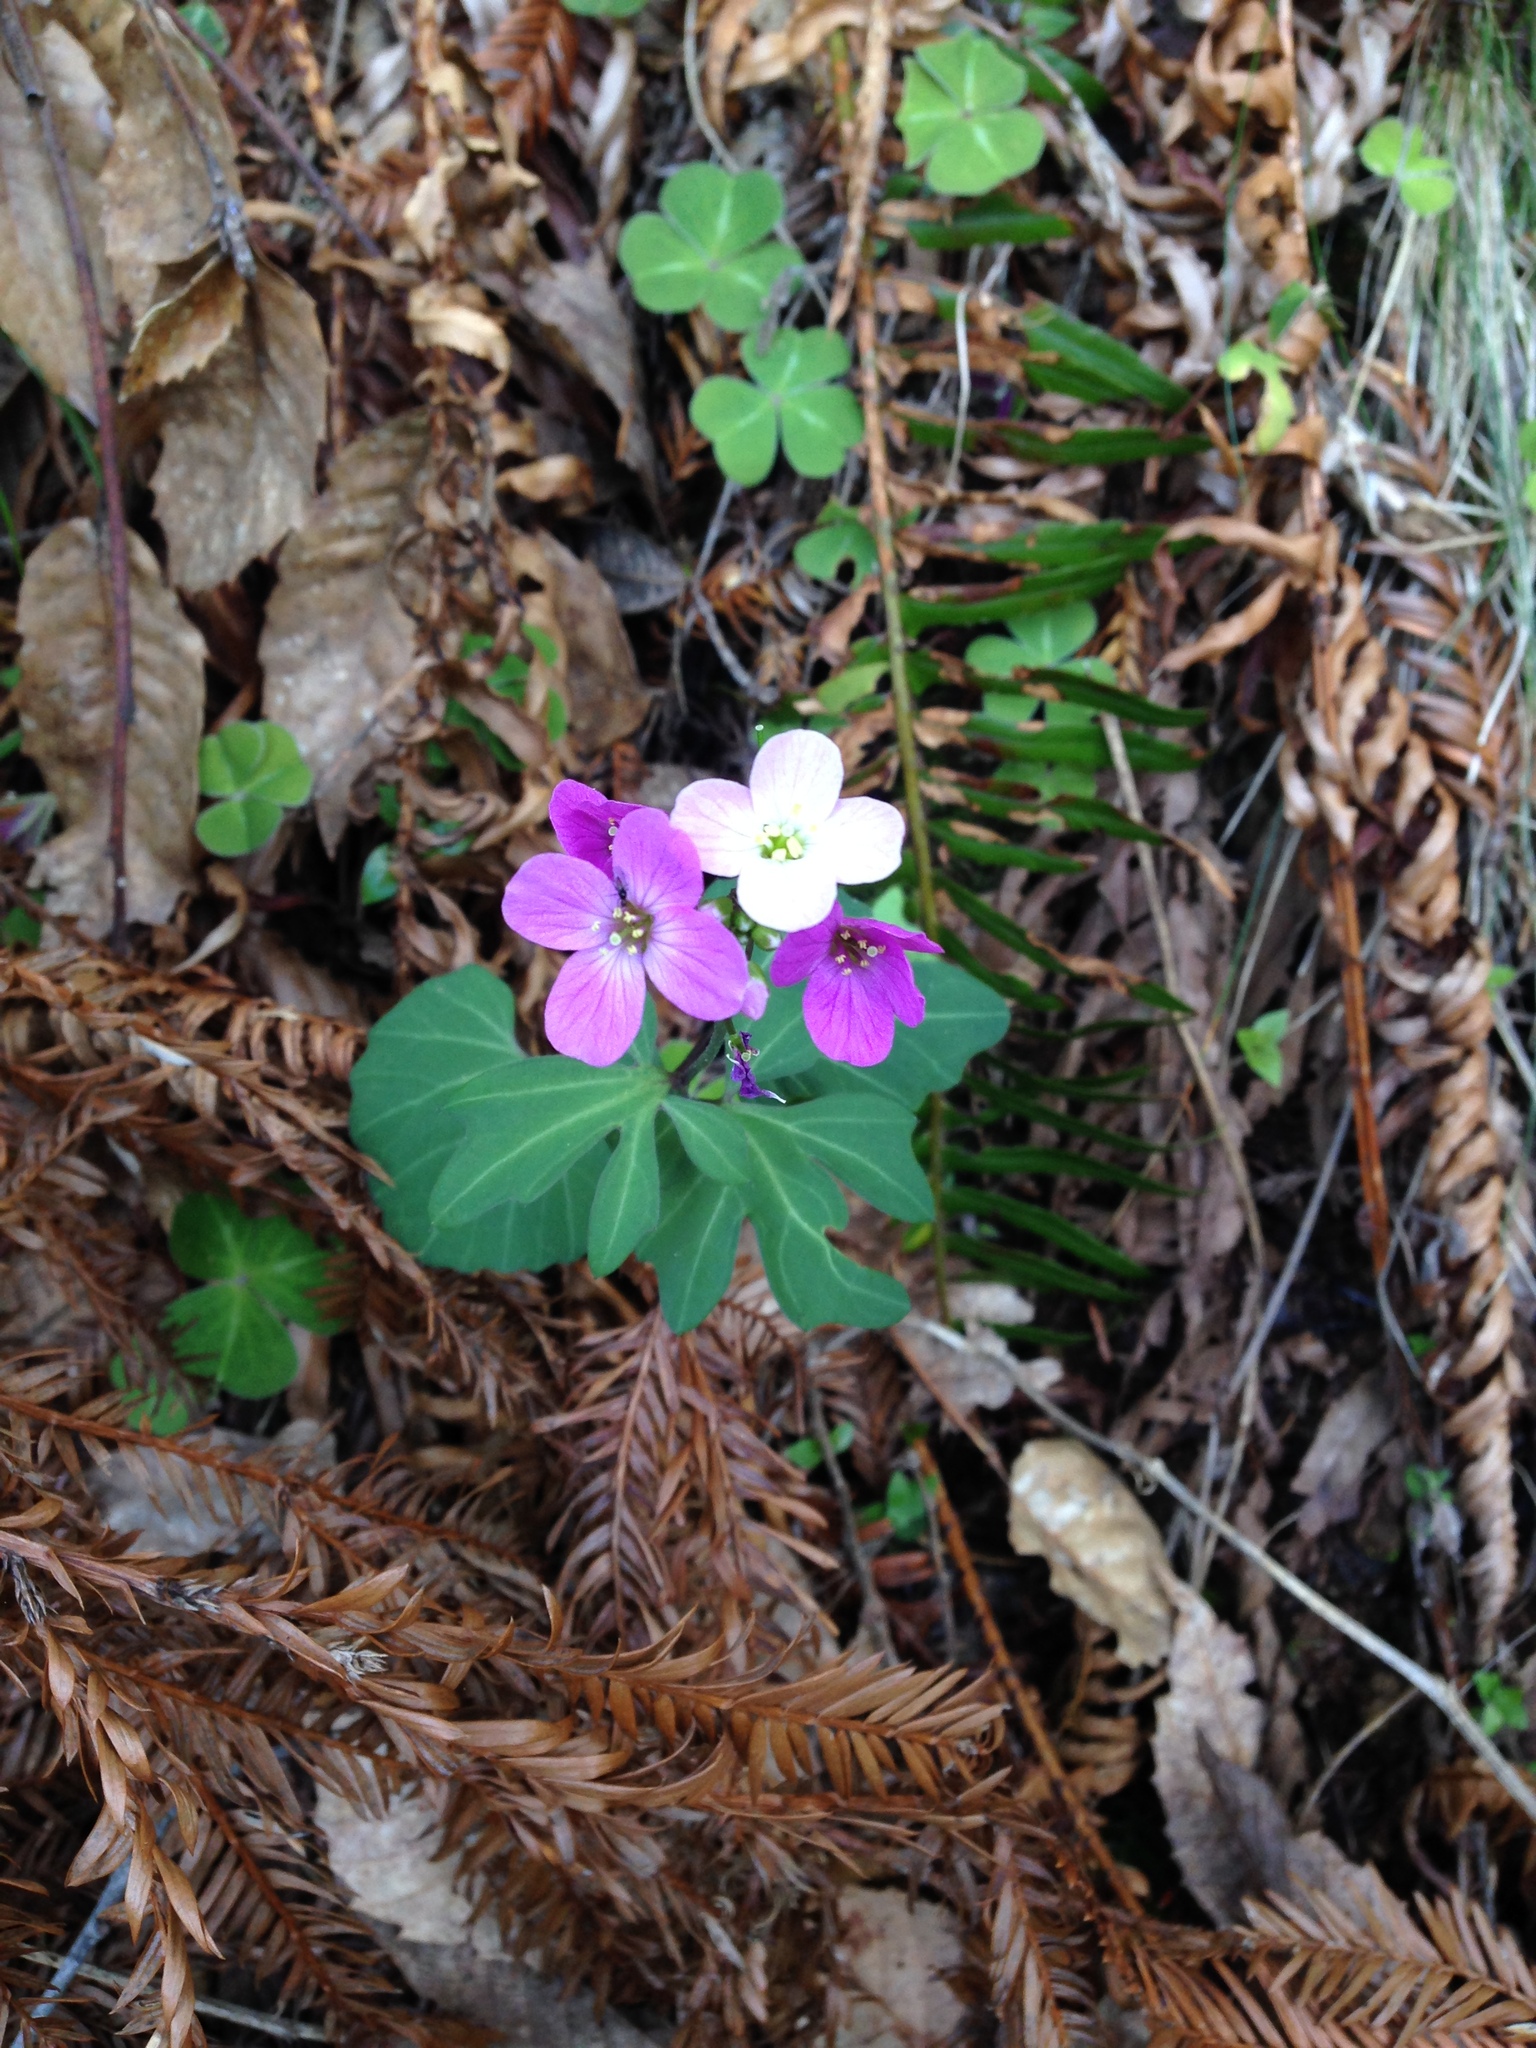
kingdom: Plantae
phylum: Tracheophyta
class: Magnoliopsida
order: Brassicales
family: Brassicaceae
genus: Cardamine
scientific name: Cardamine californica
